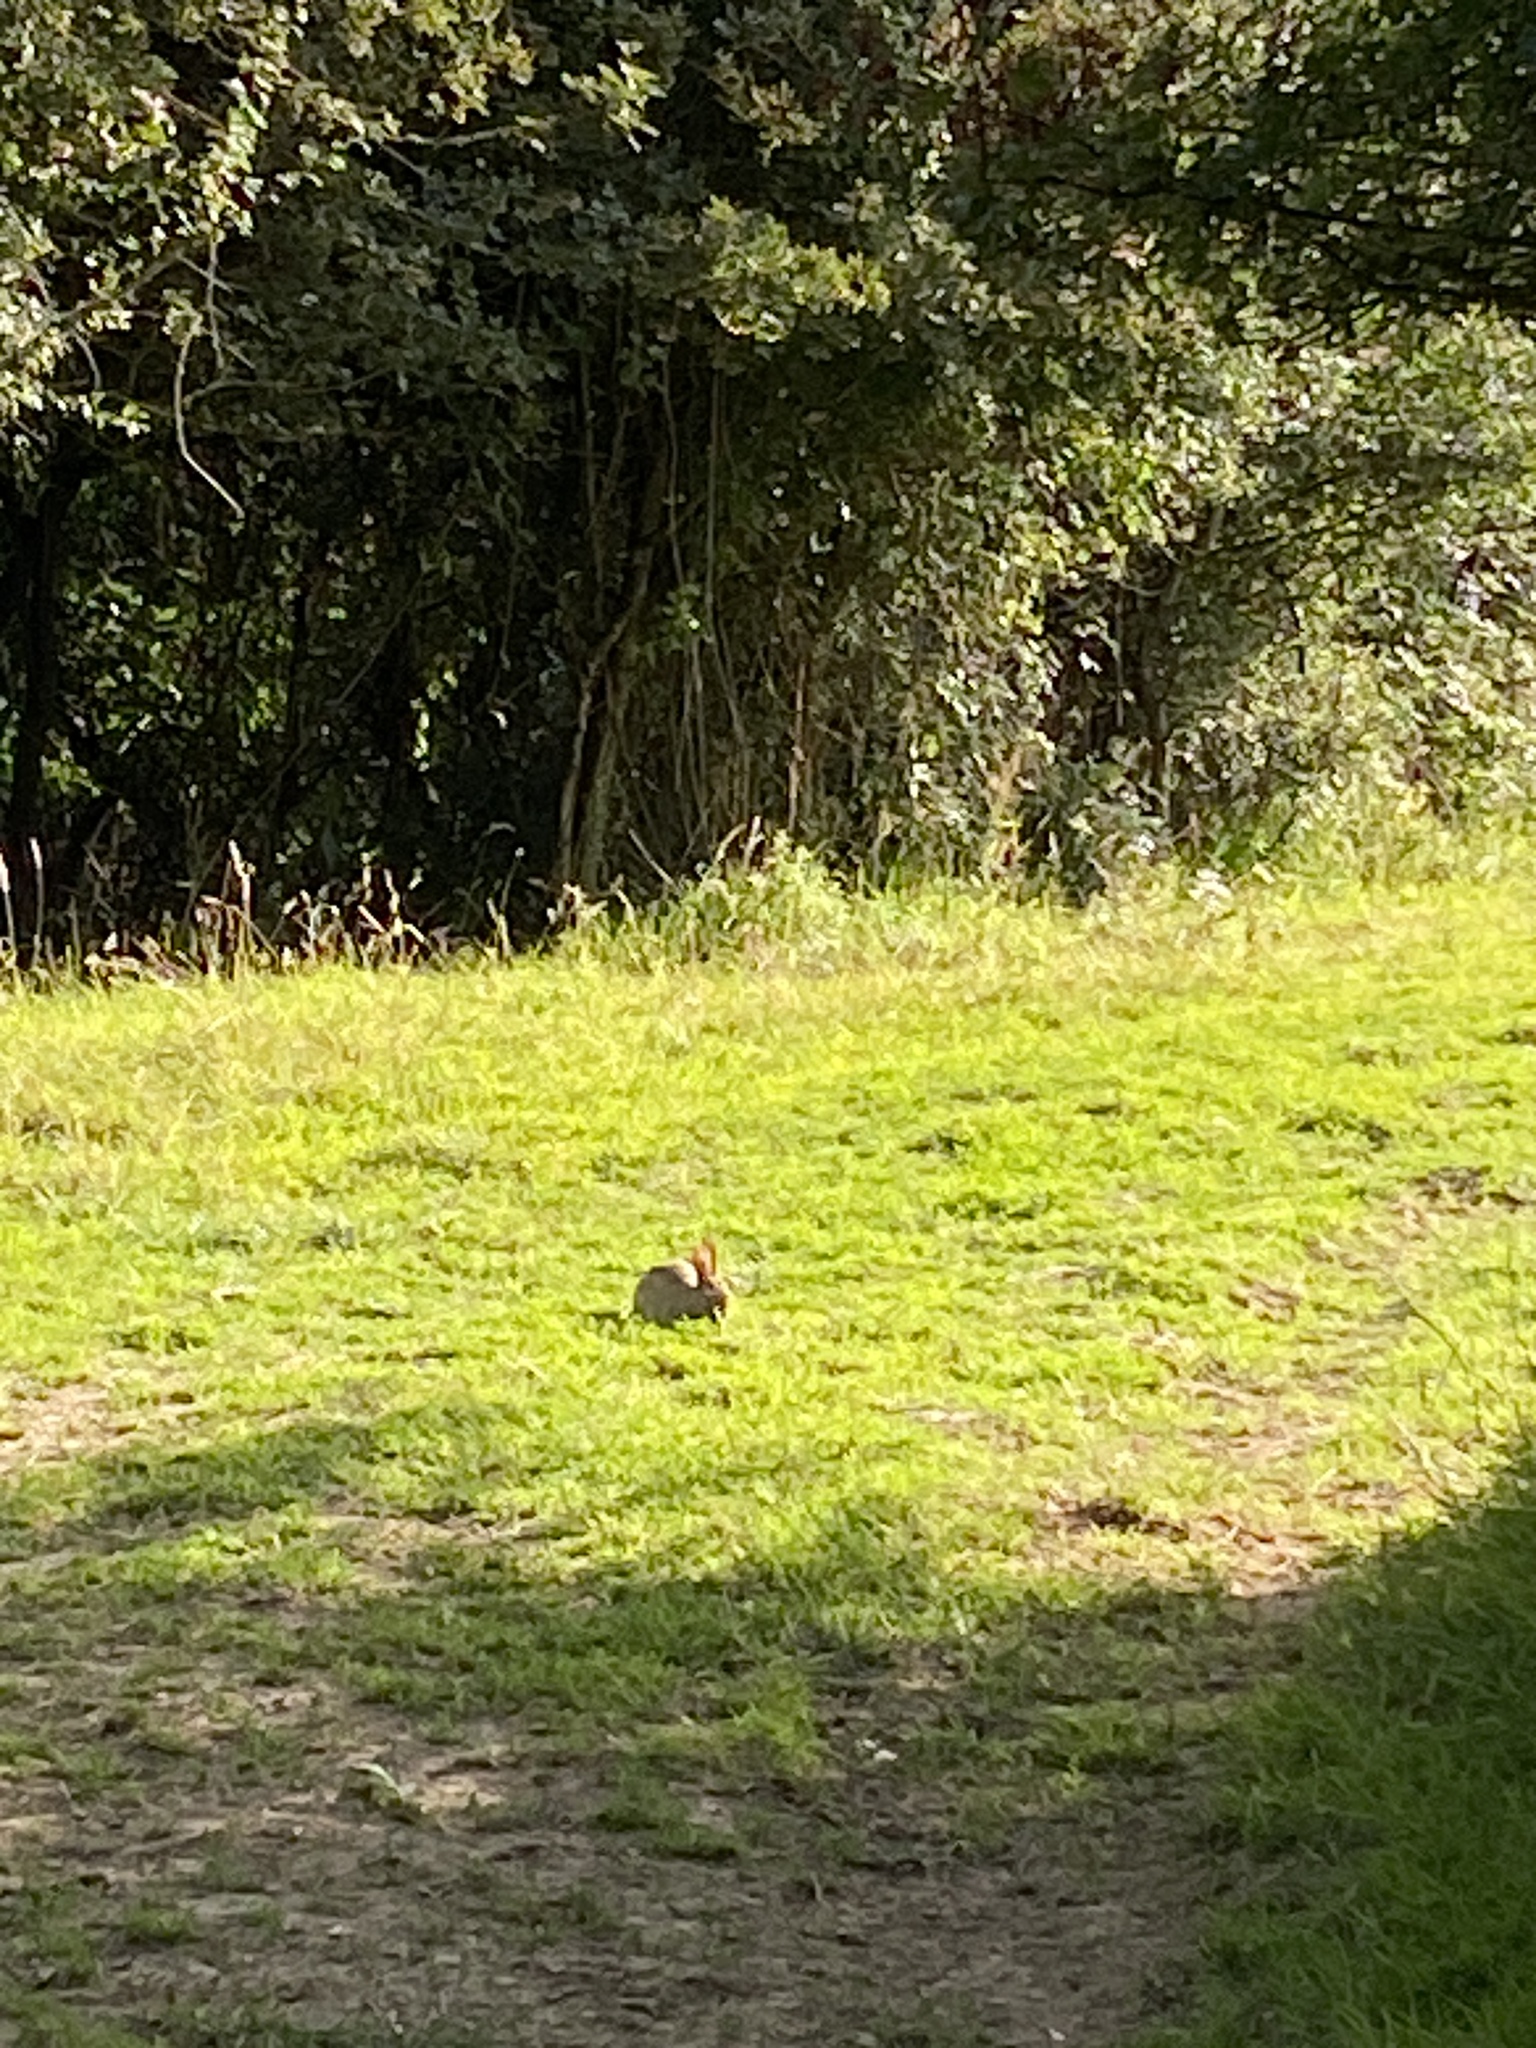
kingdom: Animalia
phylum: Chordata
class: Mammalia
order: Lagomorpha
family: Leporidae
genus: Oryctolagus
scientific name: Oryctolagus cuniculus
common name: European rabbit
